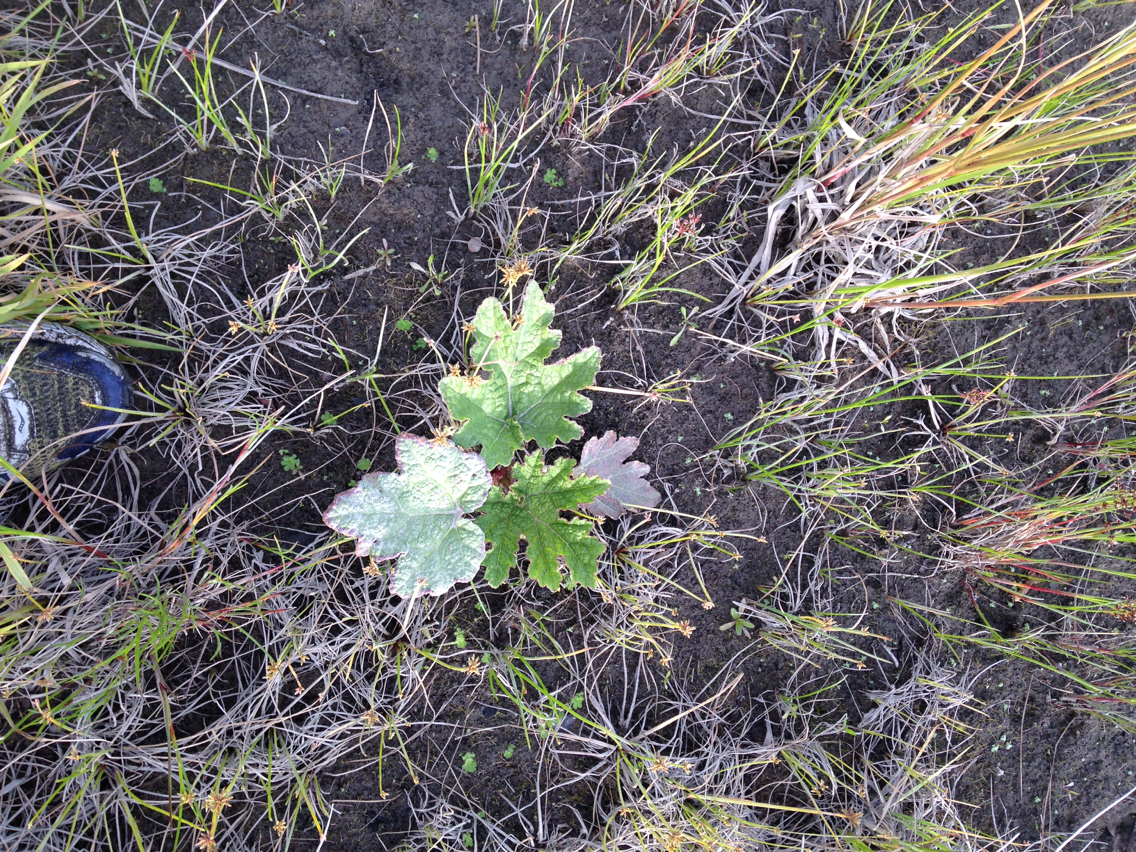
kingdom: Plantae
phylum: Tracheophyta
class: Magnoliopsida
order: Gunnerales
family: Gunneraceae
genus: Gunnera
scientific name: Gunnera tinctoria
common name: Giant-rhubarb
